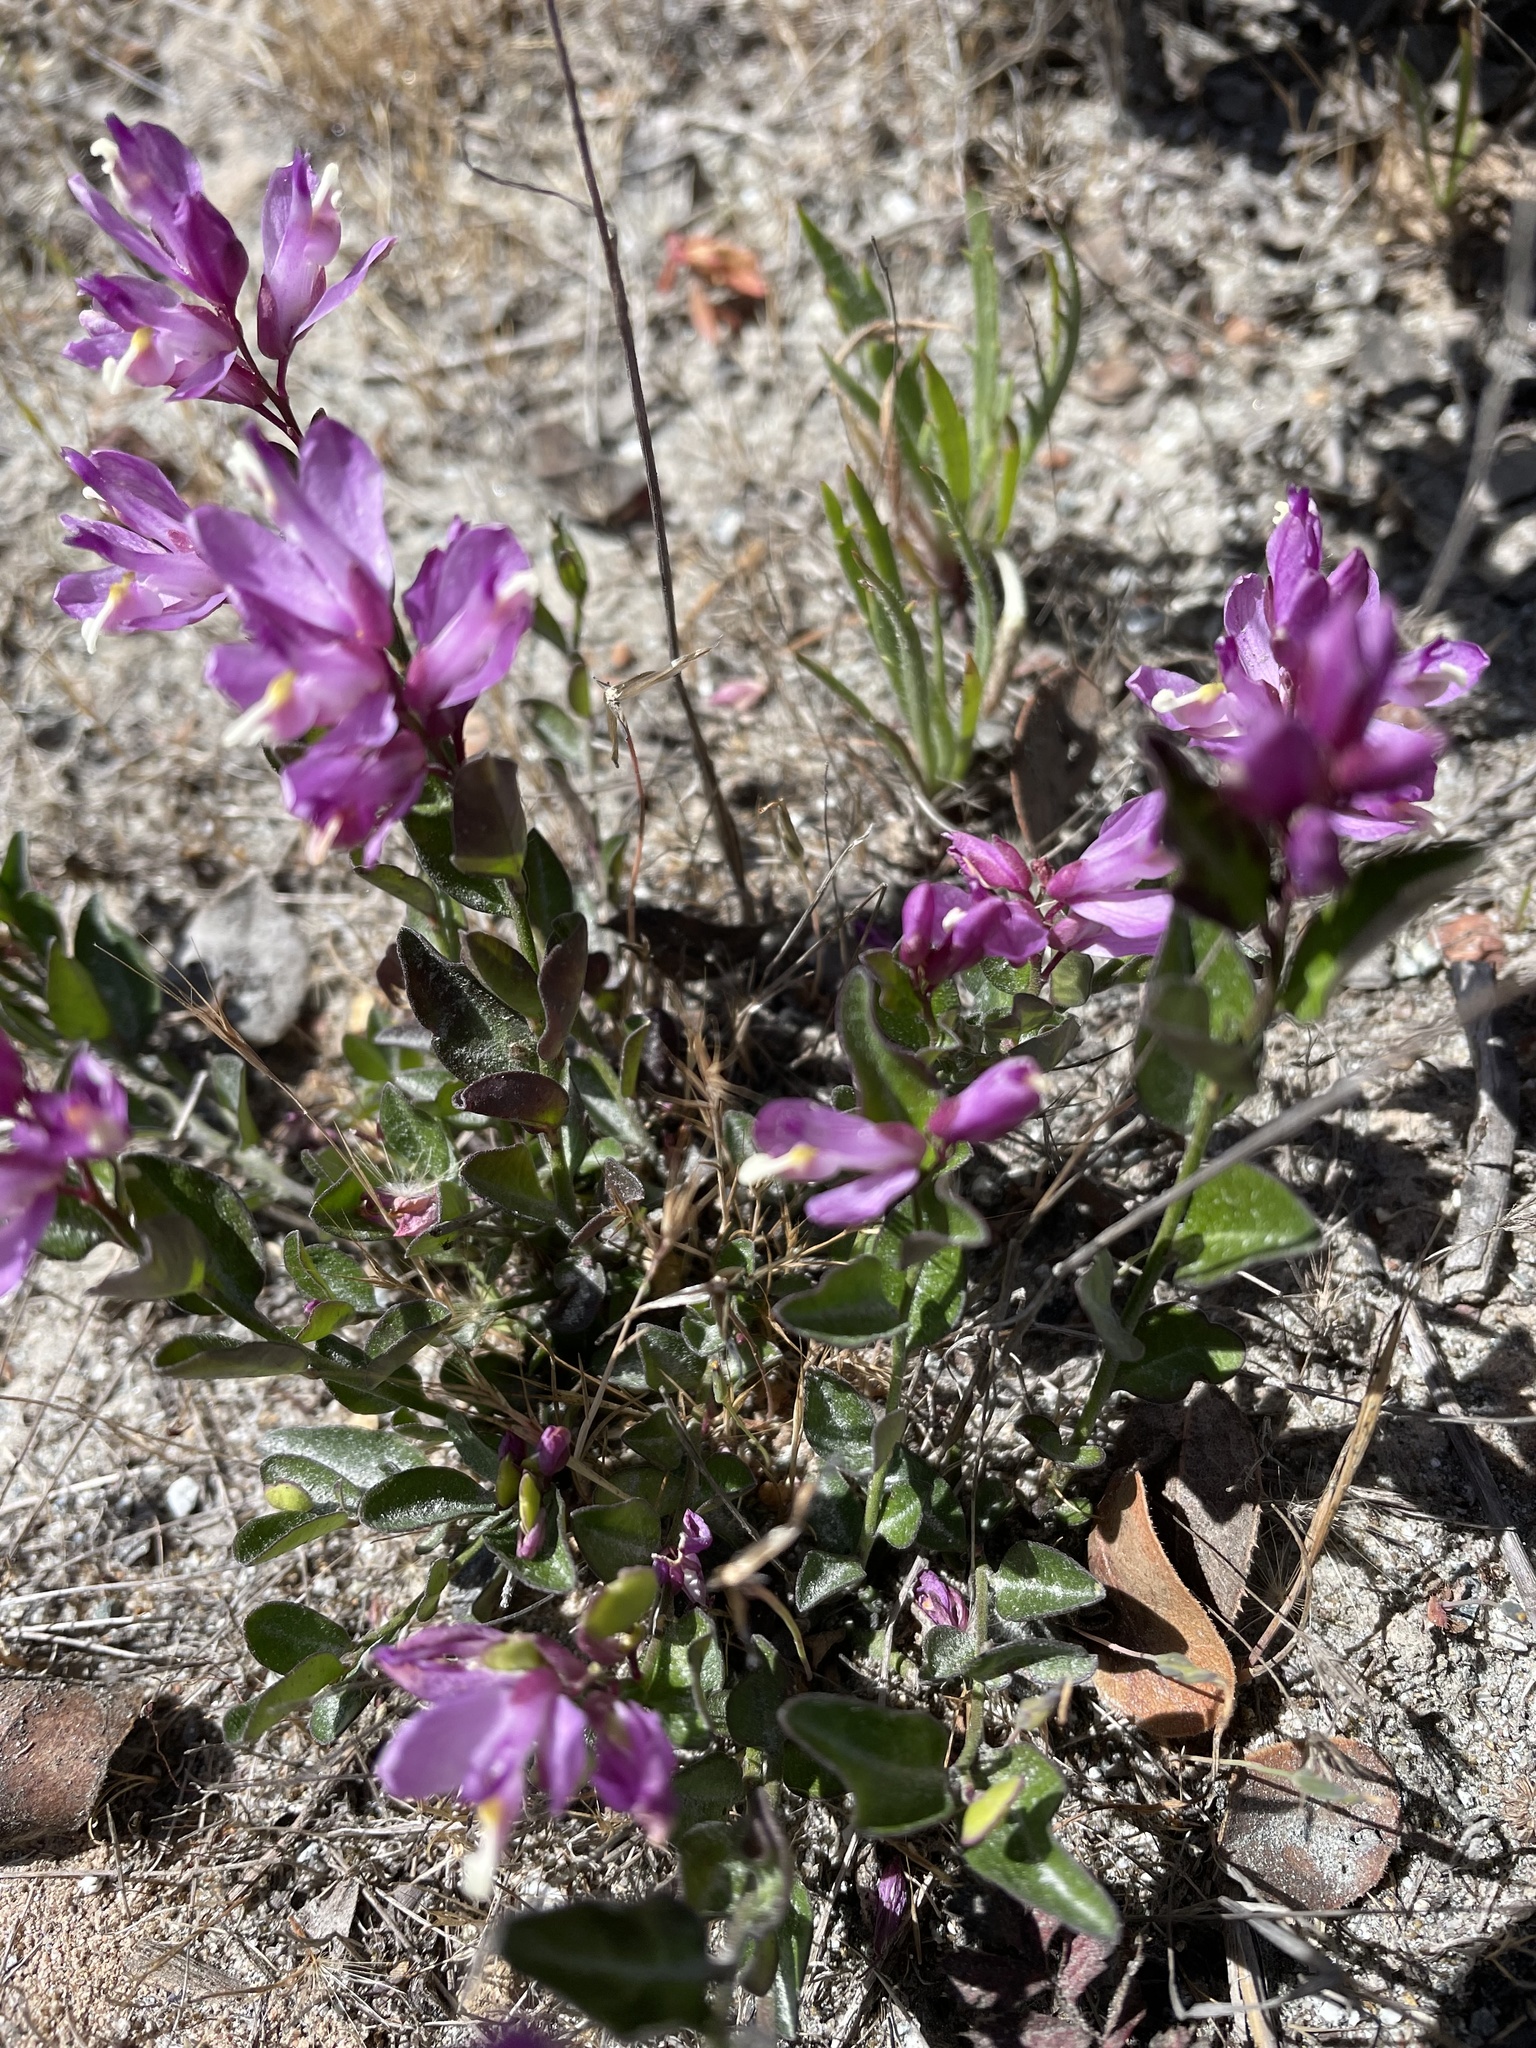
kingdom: Plantae
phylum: Tracheophyta
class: Magnoliopsida
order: Fabales
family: Polygalaceae
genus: Rhinotropis
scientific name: Rhinotropis californica
